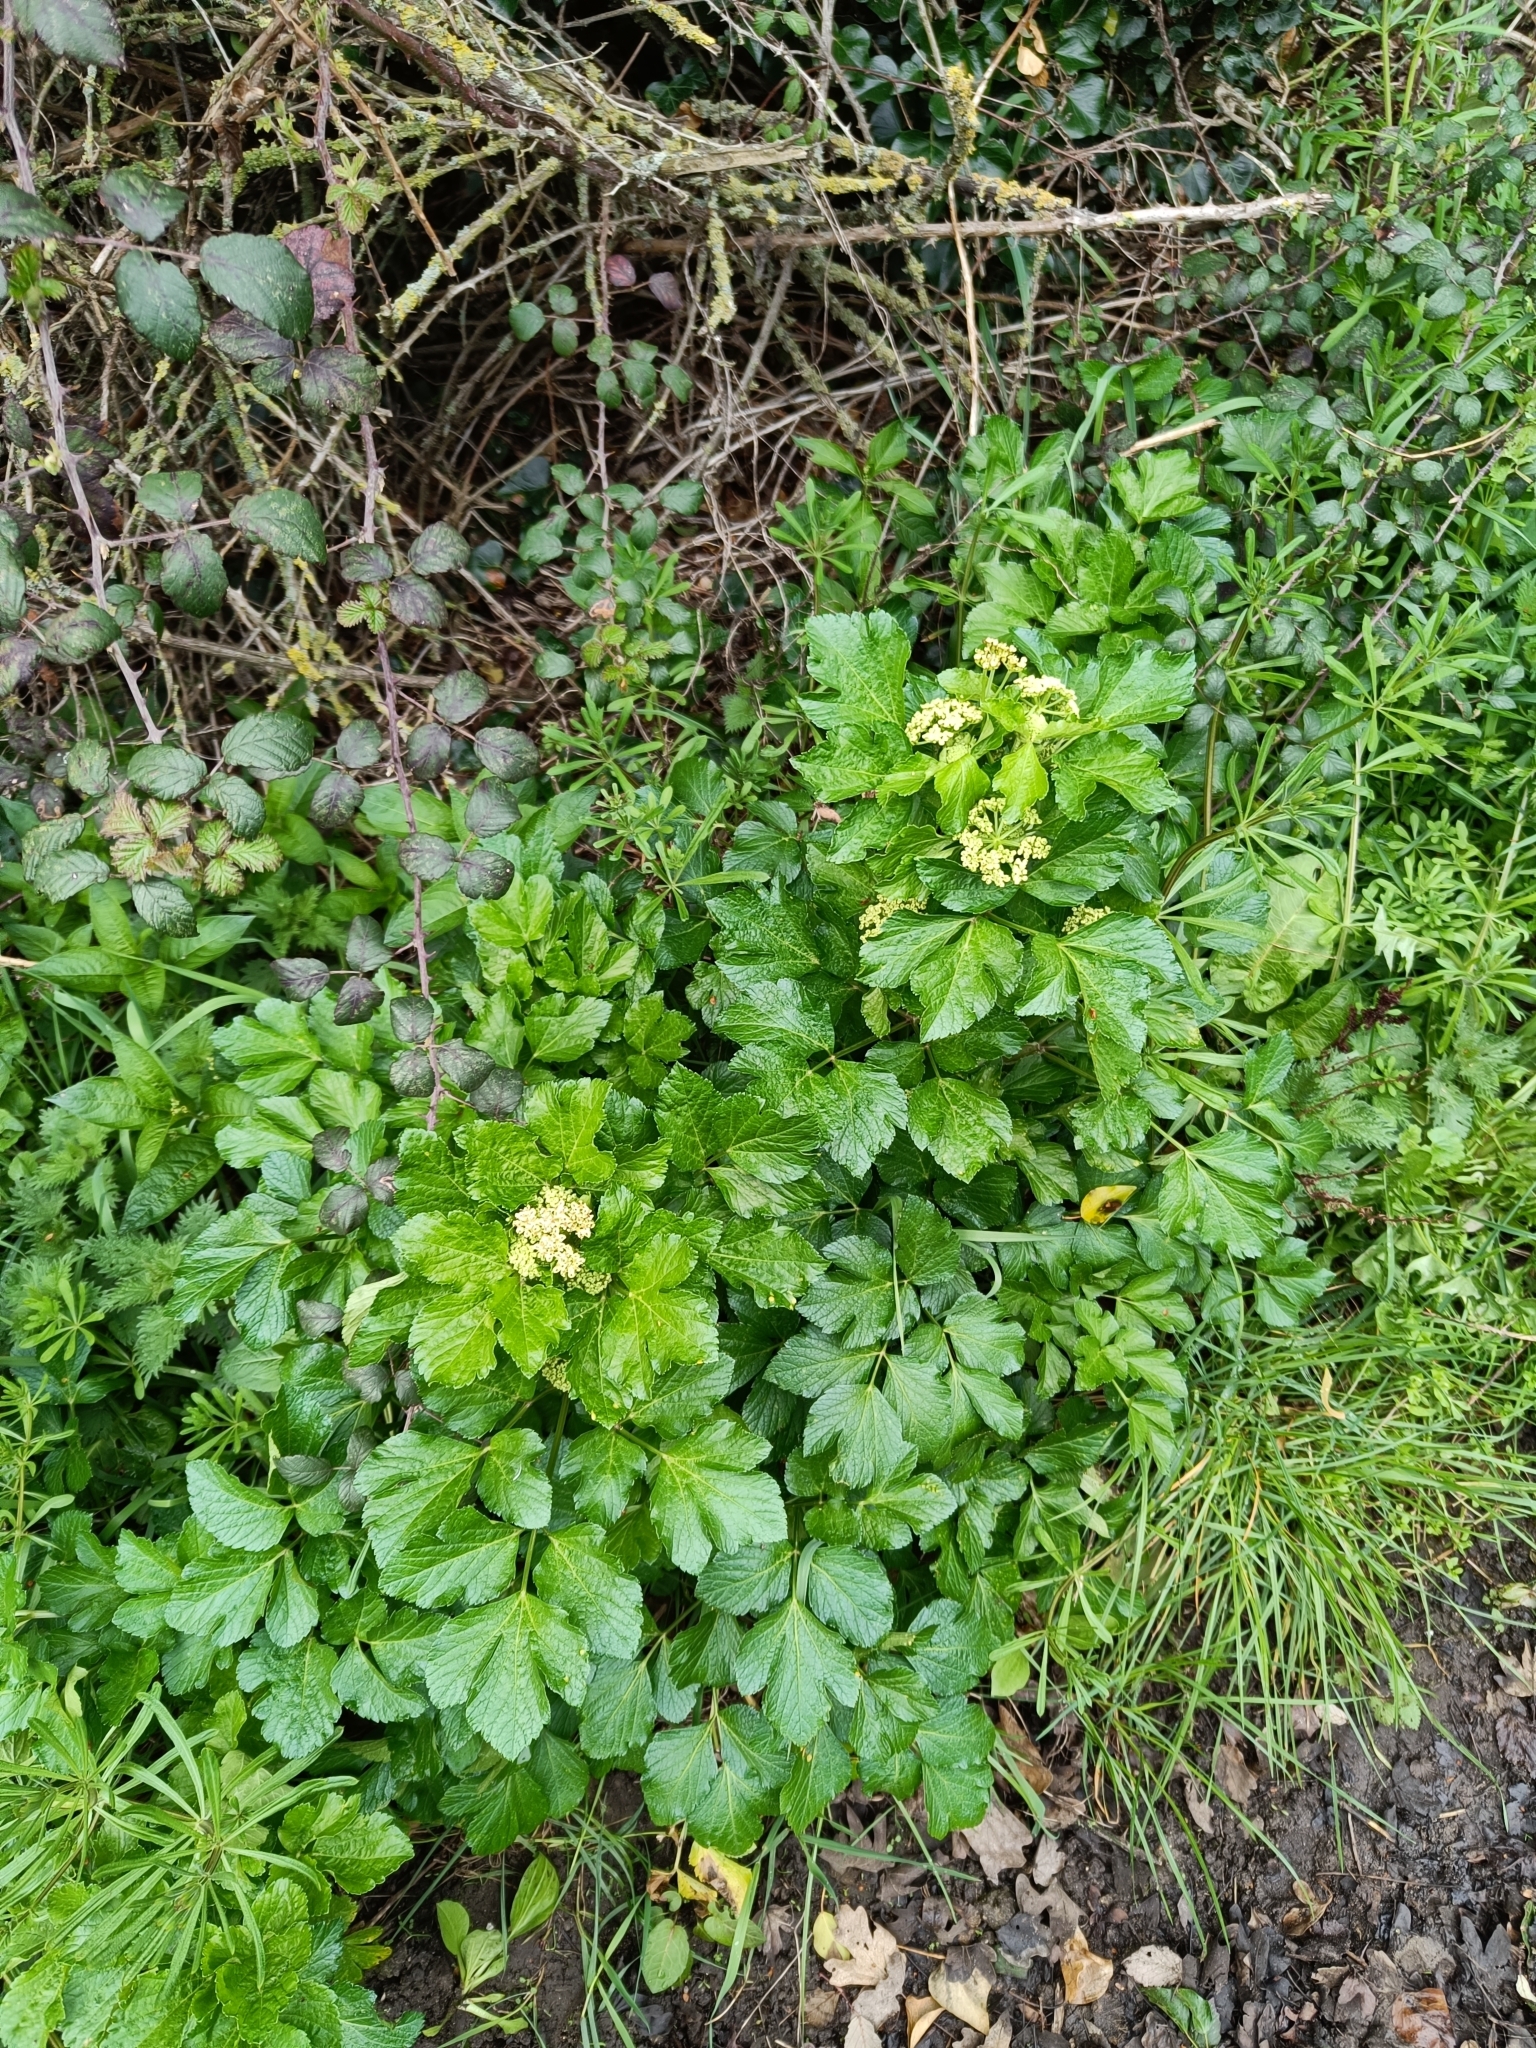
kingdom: Plantae
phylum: Tracheophyta
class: Magnoliopsida
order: Apiales
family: Apiaceae
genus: Smyrnium
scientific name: Smyrnium olusatrum
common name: Alexanders
